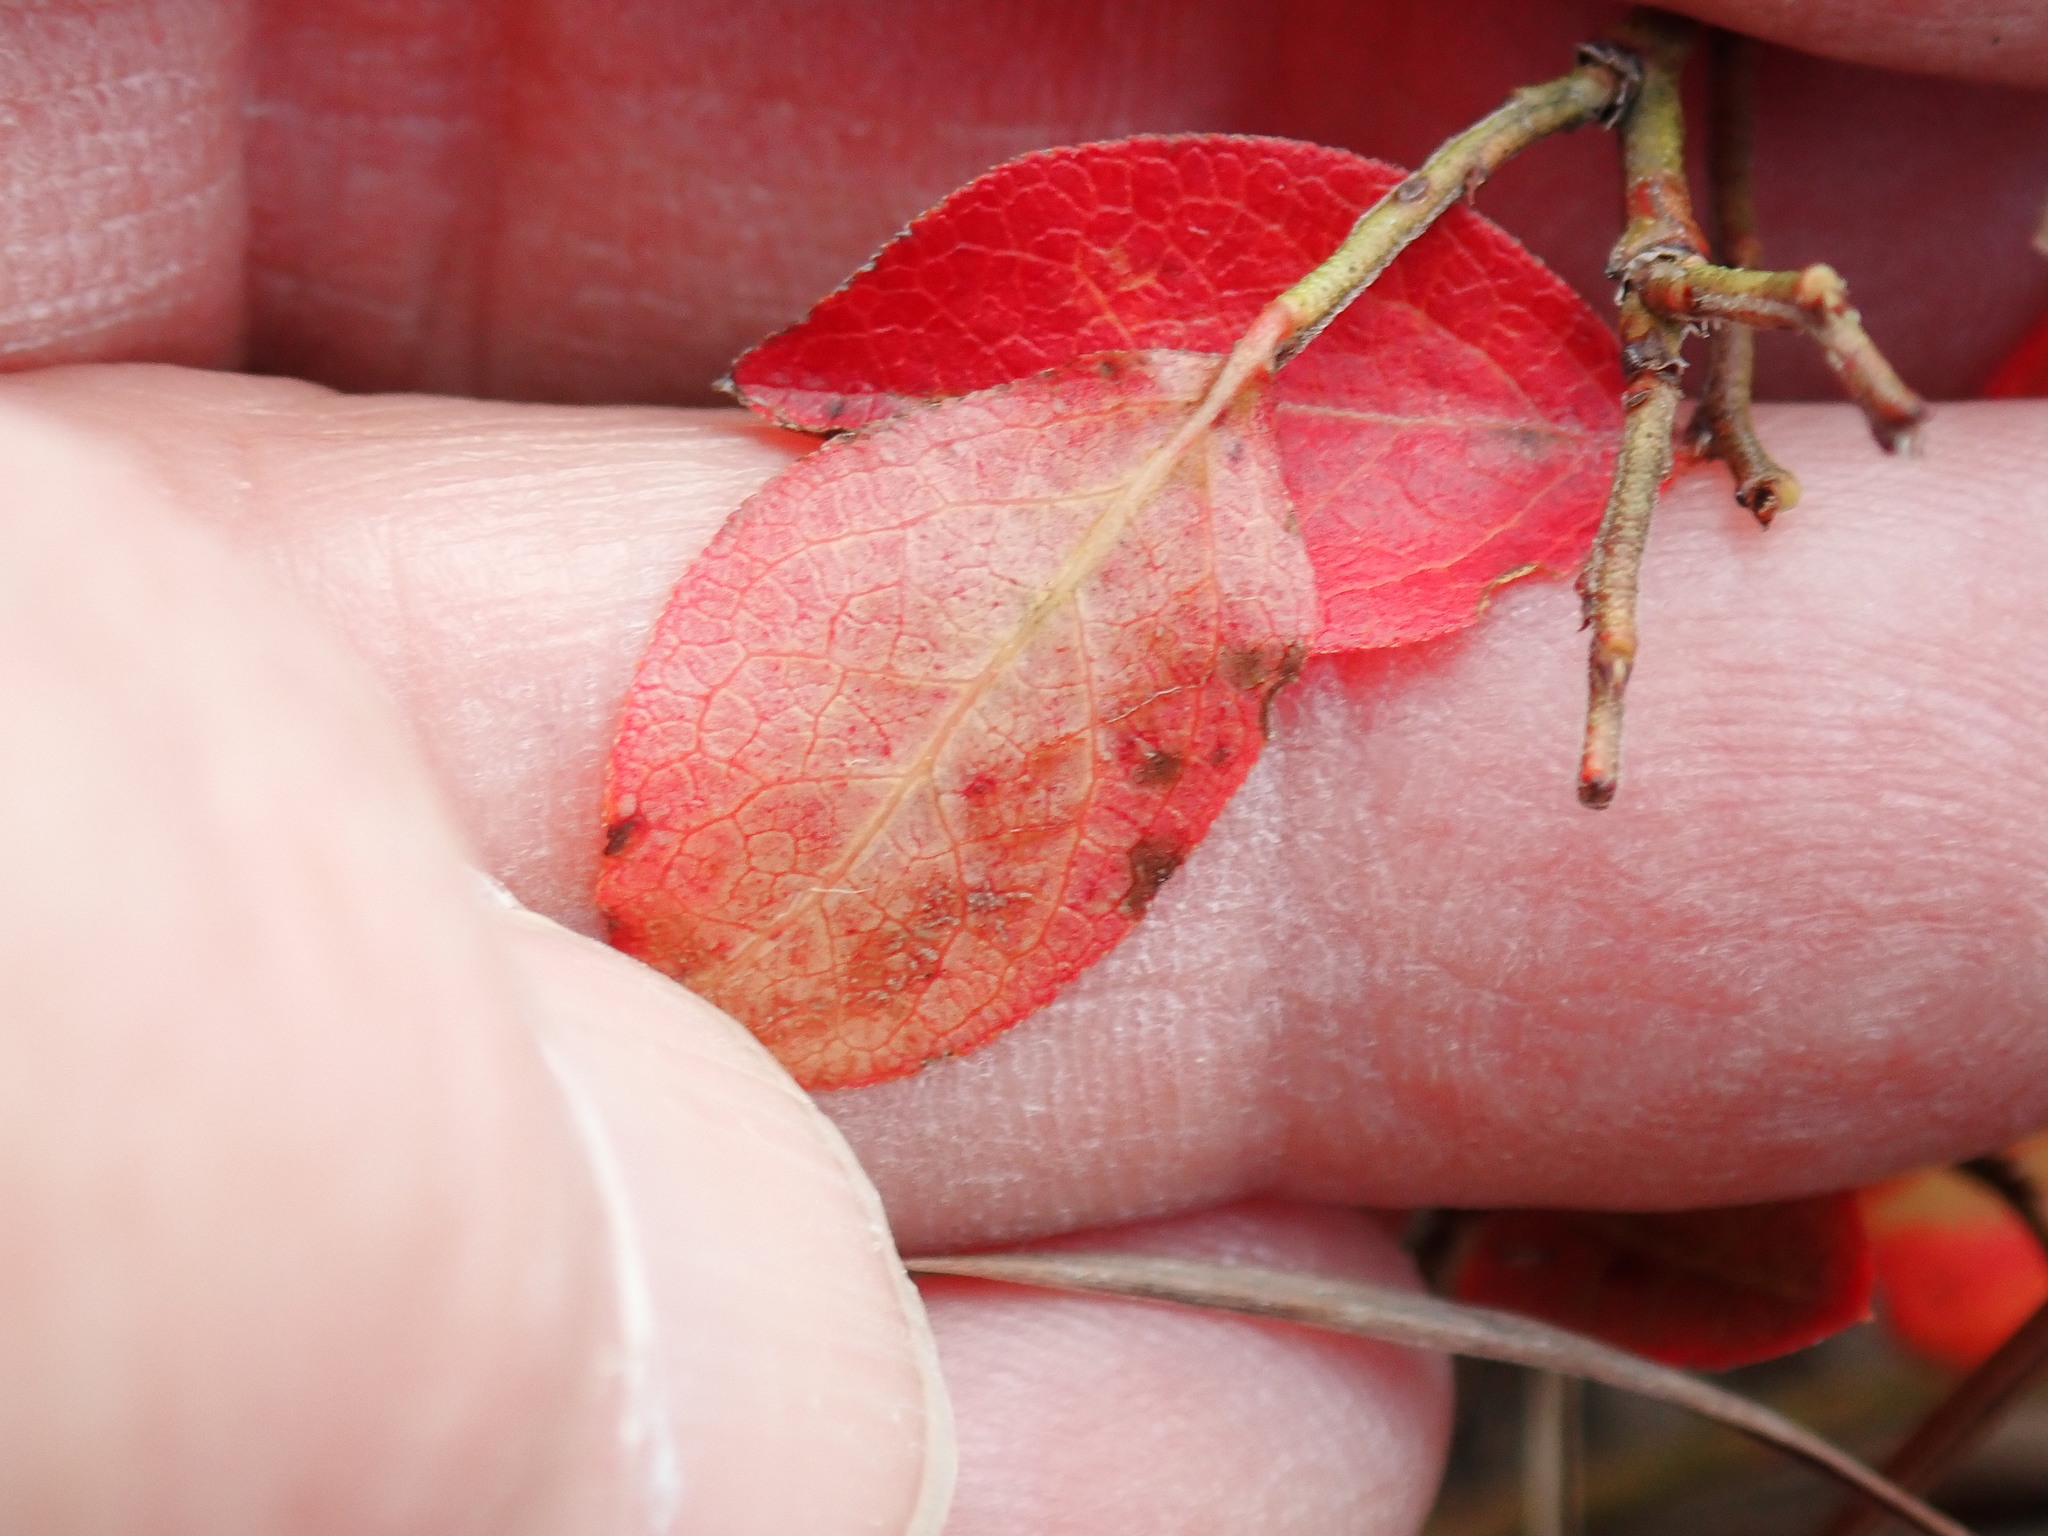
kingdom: Plantae
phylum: Tracheophyta
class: Magnoliopsida
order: Ericales
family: Ericaceae
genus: Vaccinium
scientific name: Vaccinium angustifolium
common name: Early lowbush blueberry
